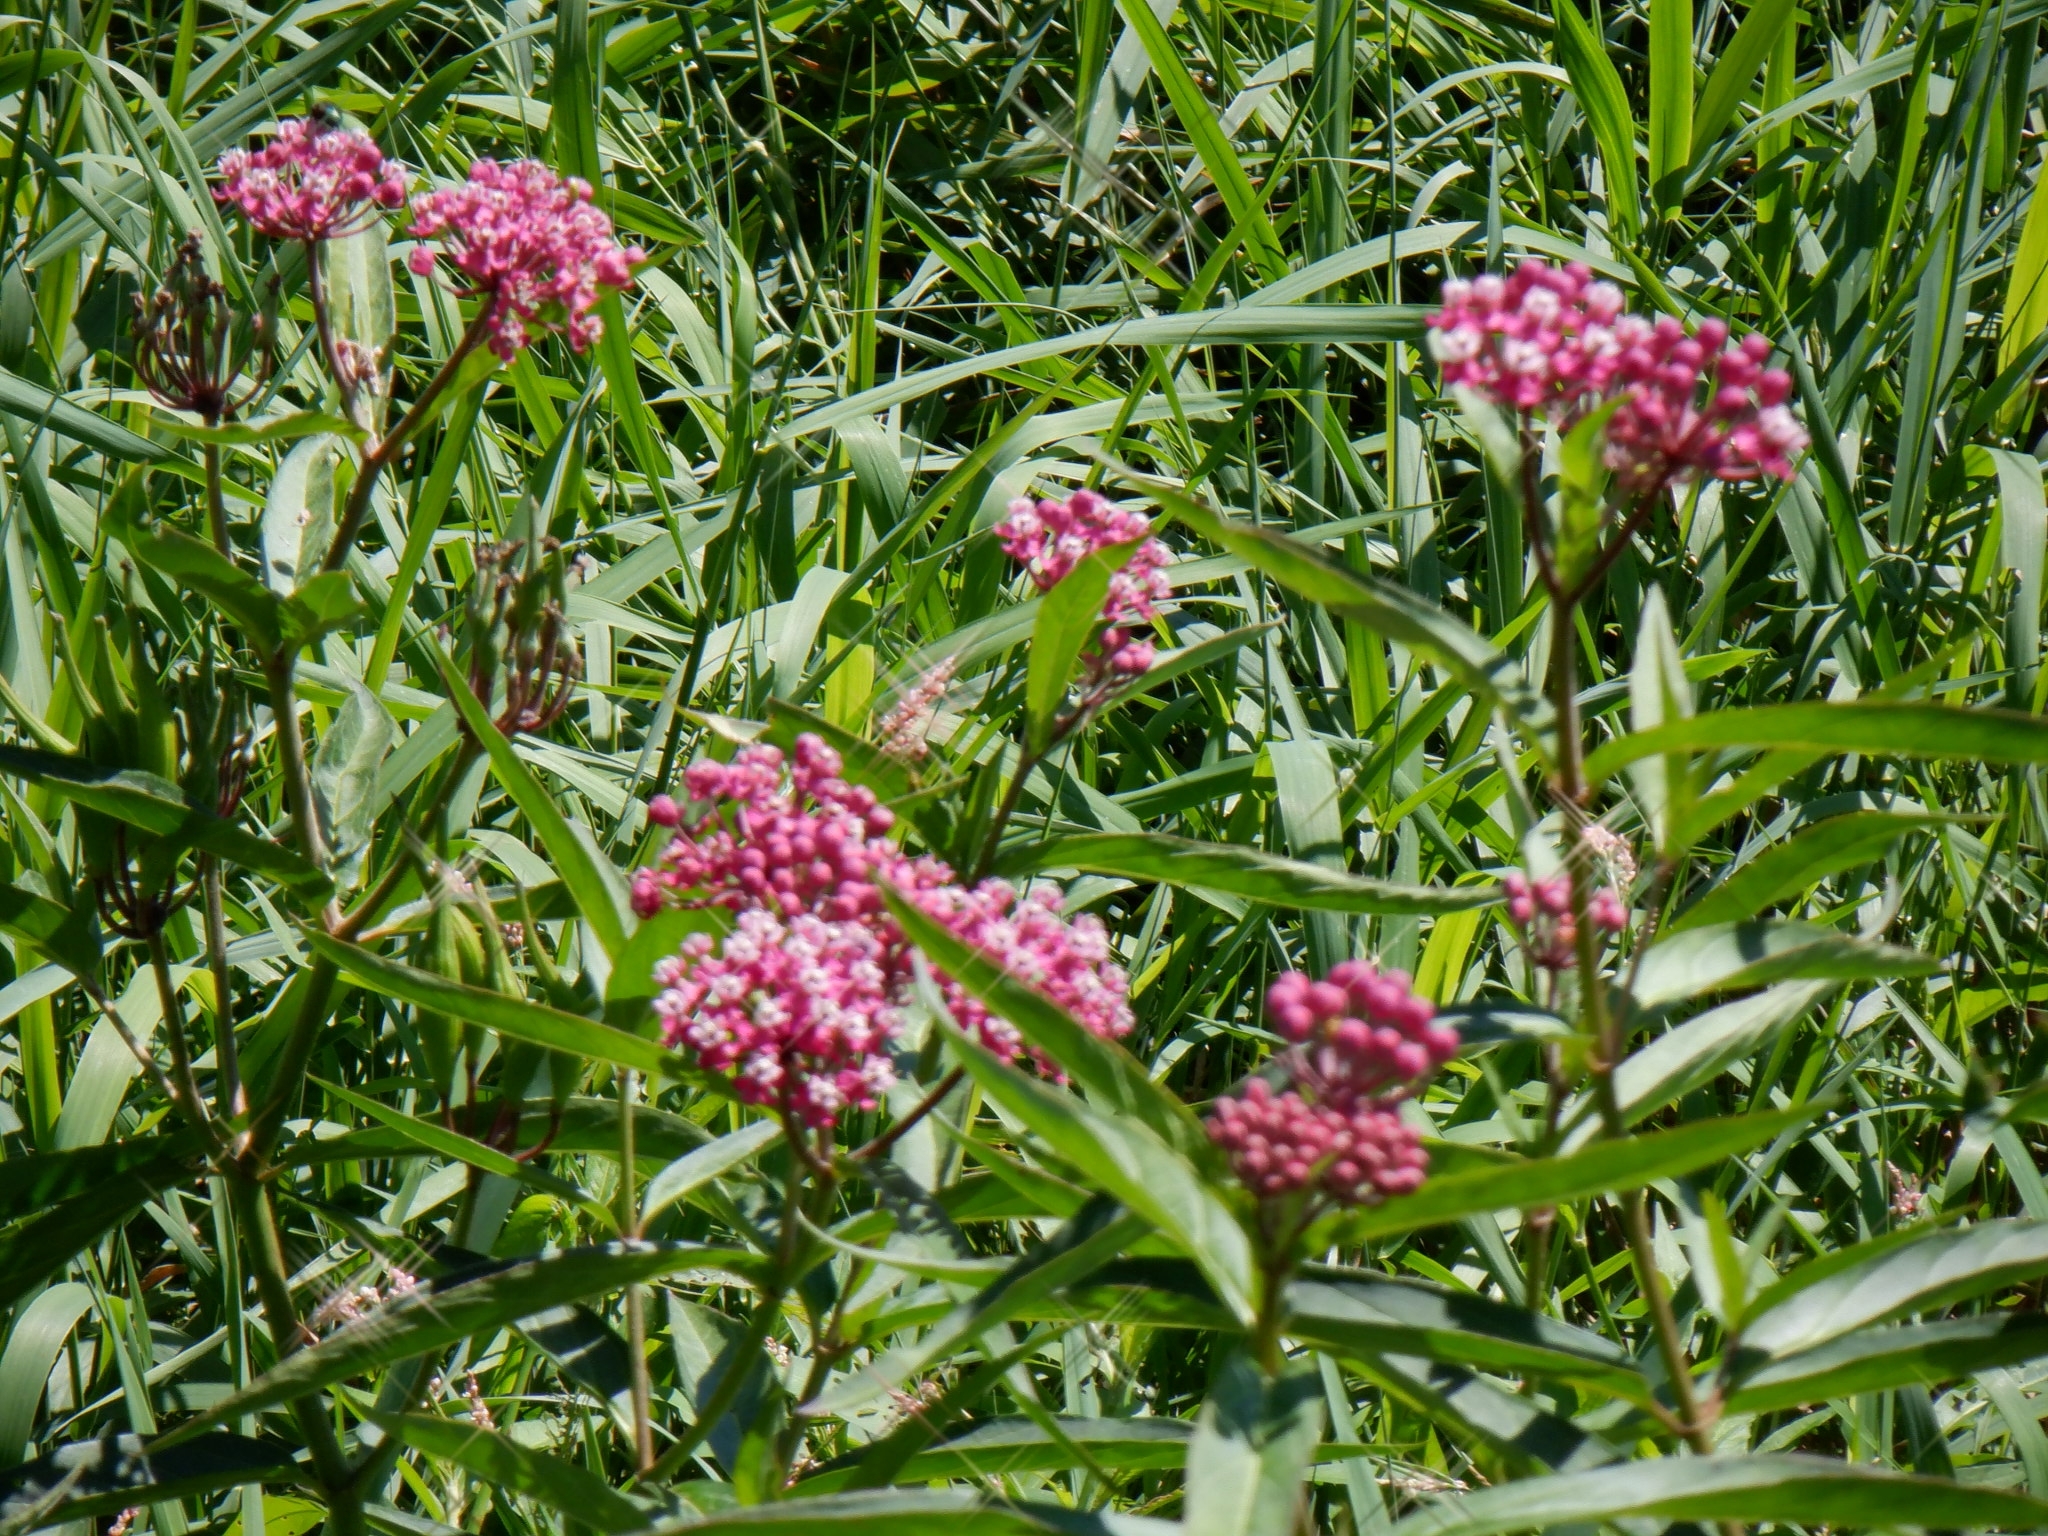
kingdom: Plantae
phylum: Tracheophyta
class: Magnoliopsida
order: Gentianales
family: Apocynaceae
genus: Asclepias
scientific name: Asclepias incarnata
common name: Swamp milkweed
